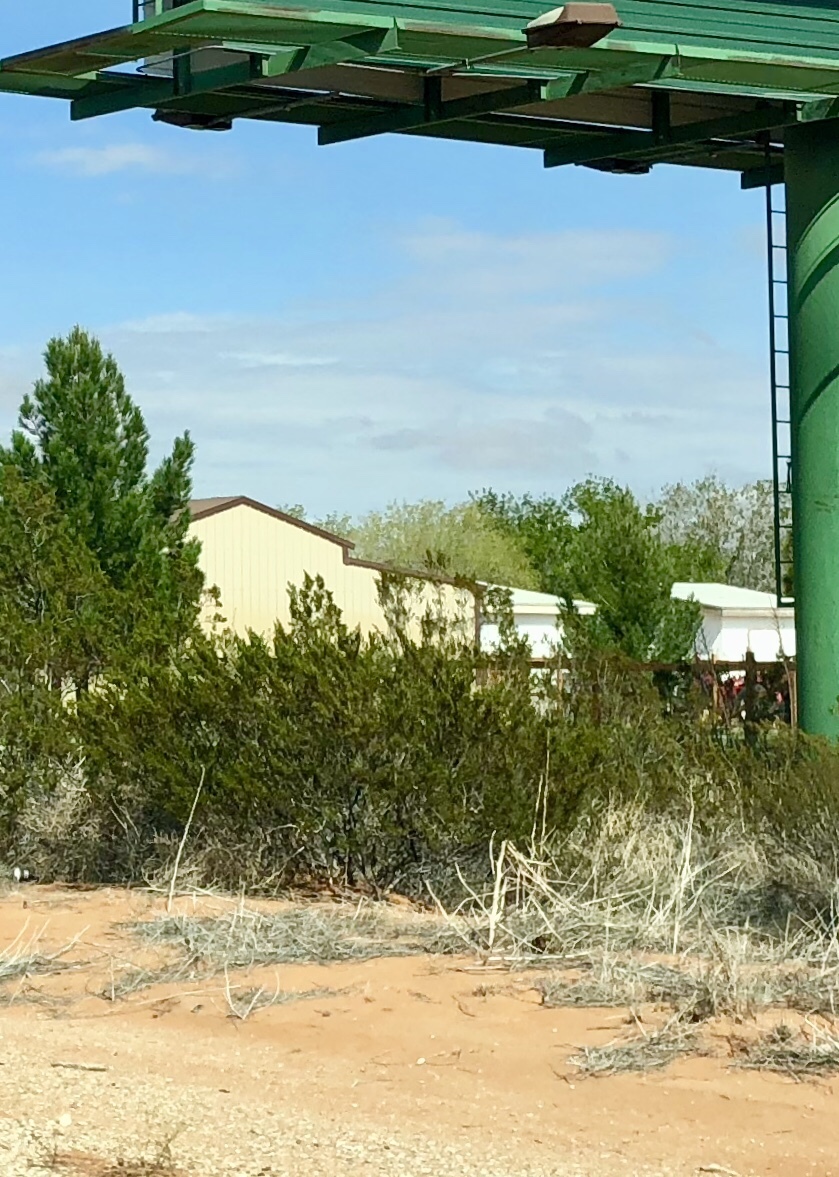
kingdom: Plantae
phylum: Tracheophyta
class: Magnoliopsida
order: Zygophyllales
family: Zygophyllaceae
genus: Larrea
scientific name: Larrea tridentata
